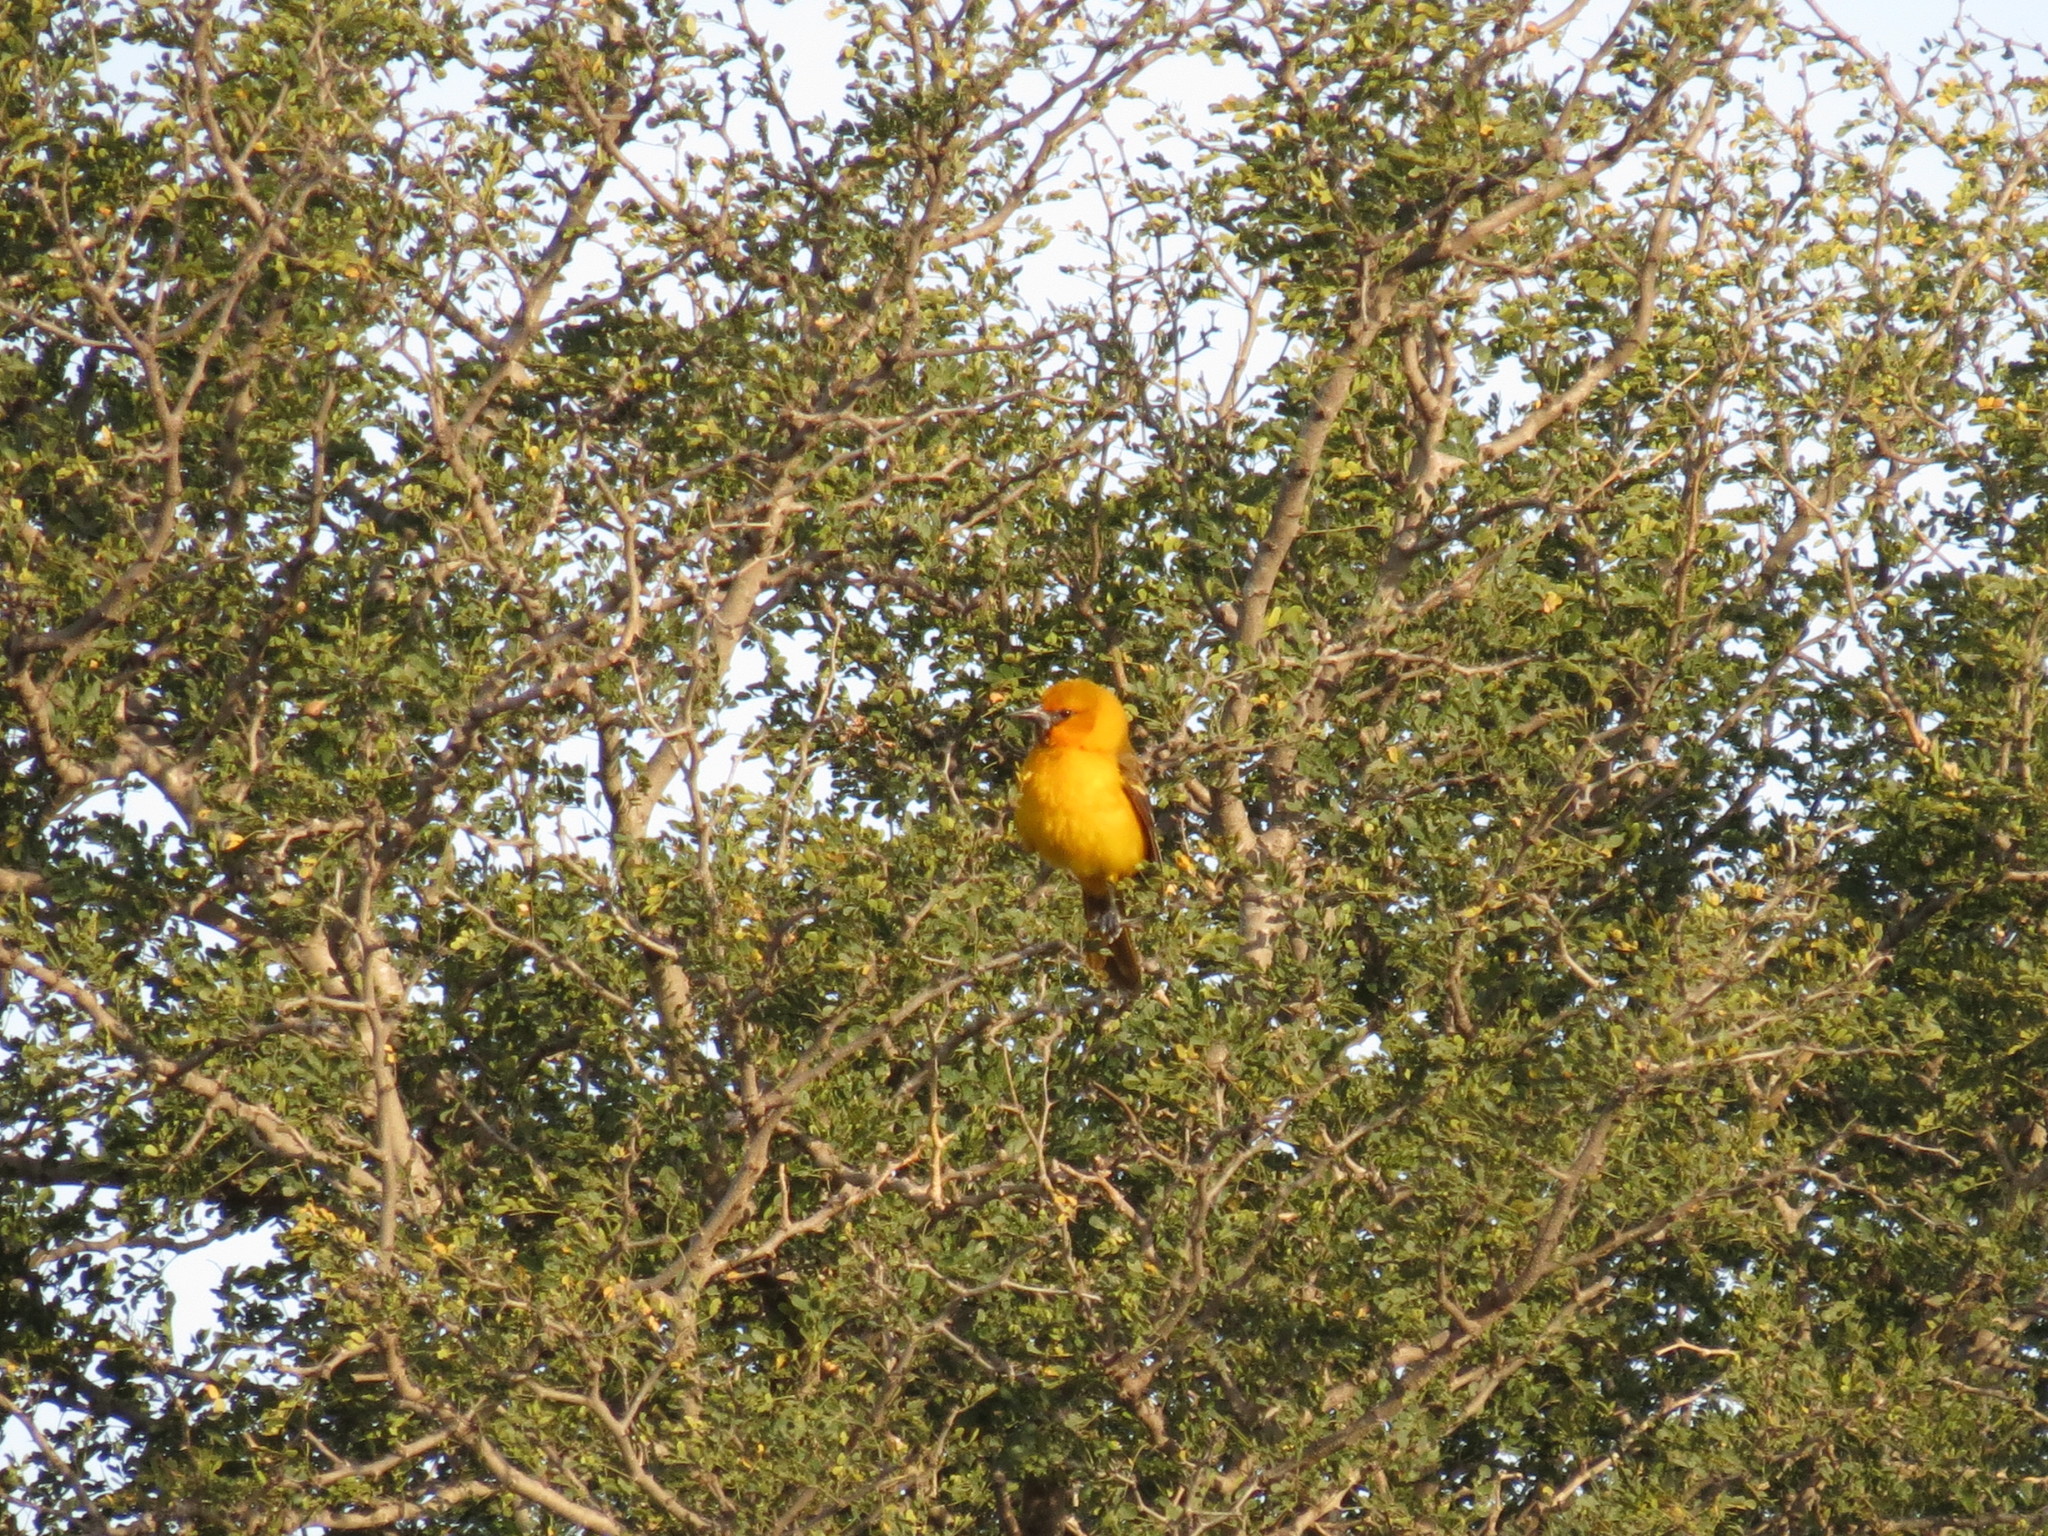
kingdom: Animalia
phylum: Chordata
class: Aves
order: Passeriformes
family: Icteridae
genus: Icterus
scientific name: Icterus cucullatus
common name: Hooded oriole
